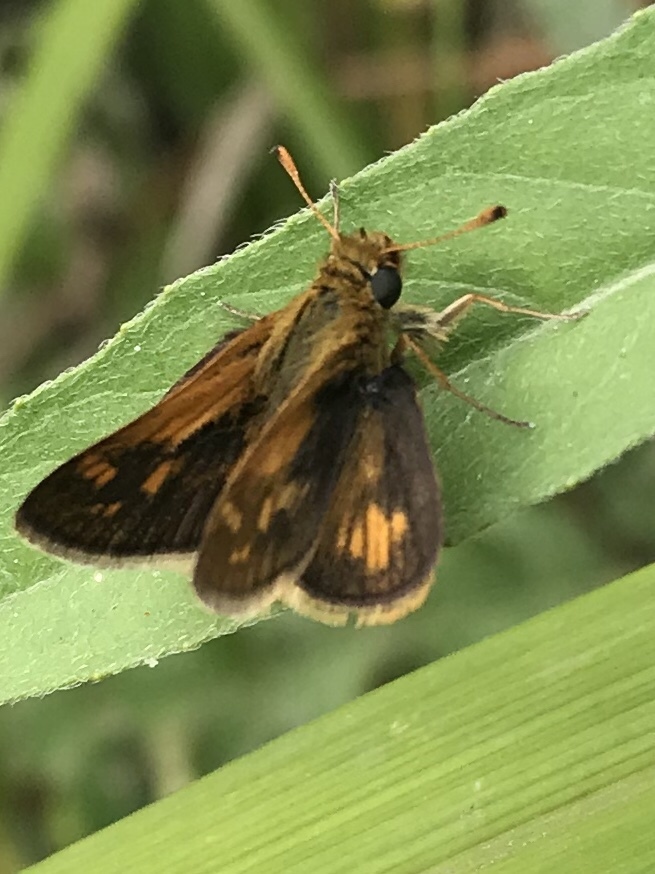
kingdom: Animalia
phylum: Arthropoda
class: Insecta
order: Lepidoptera
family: Hesperiidae
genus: Polites
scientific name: Polites coras
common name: Peck's skipper
